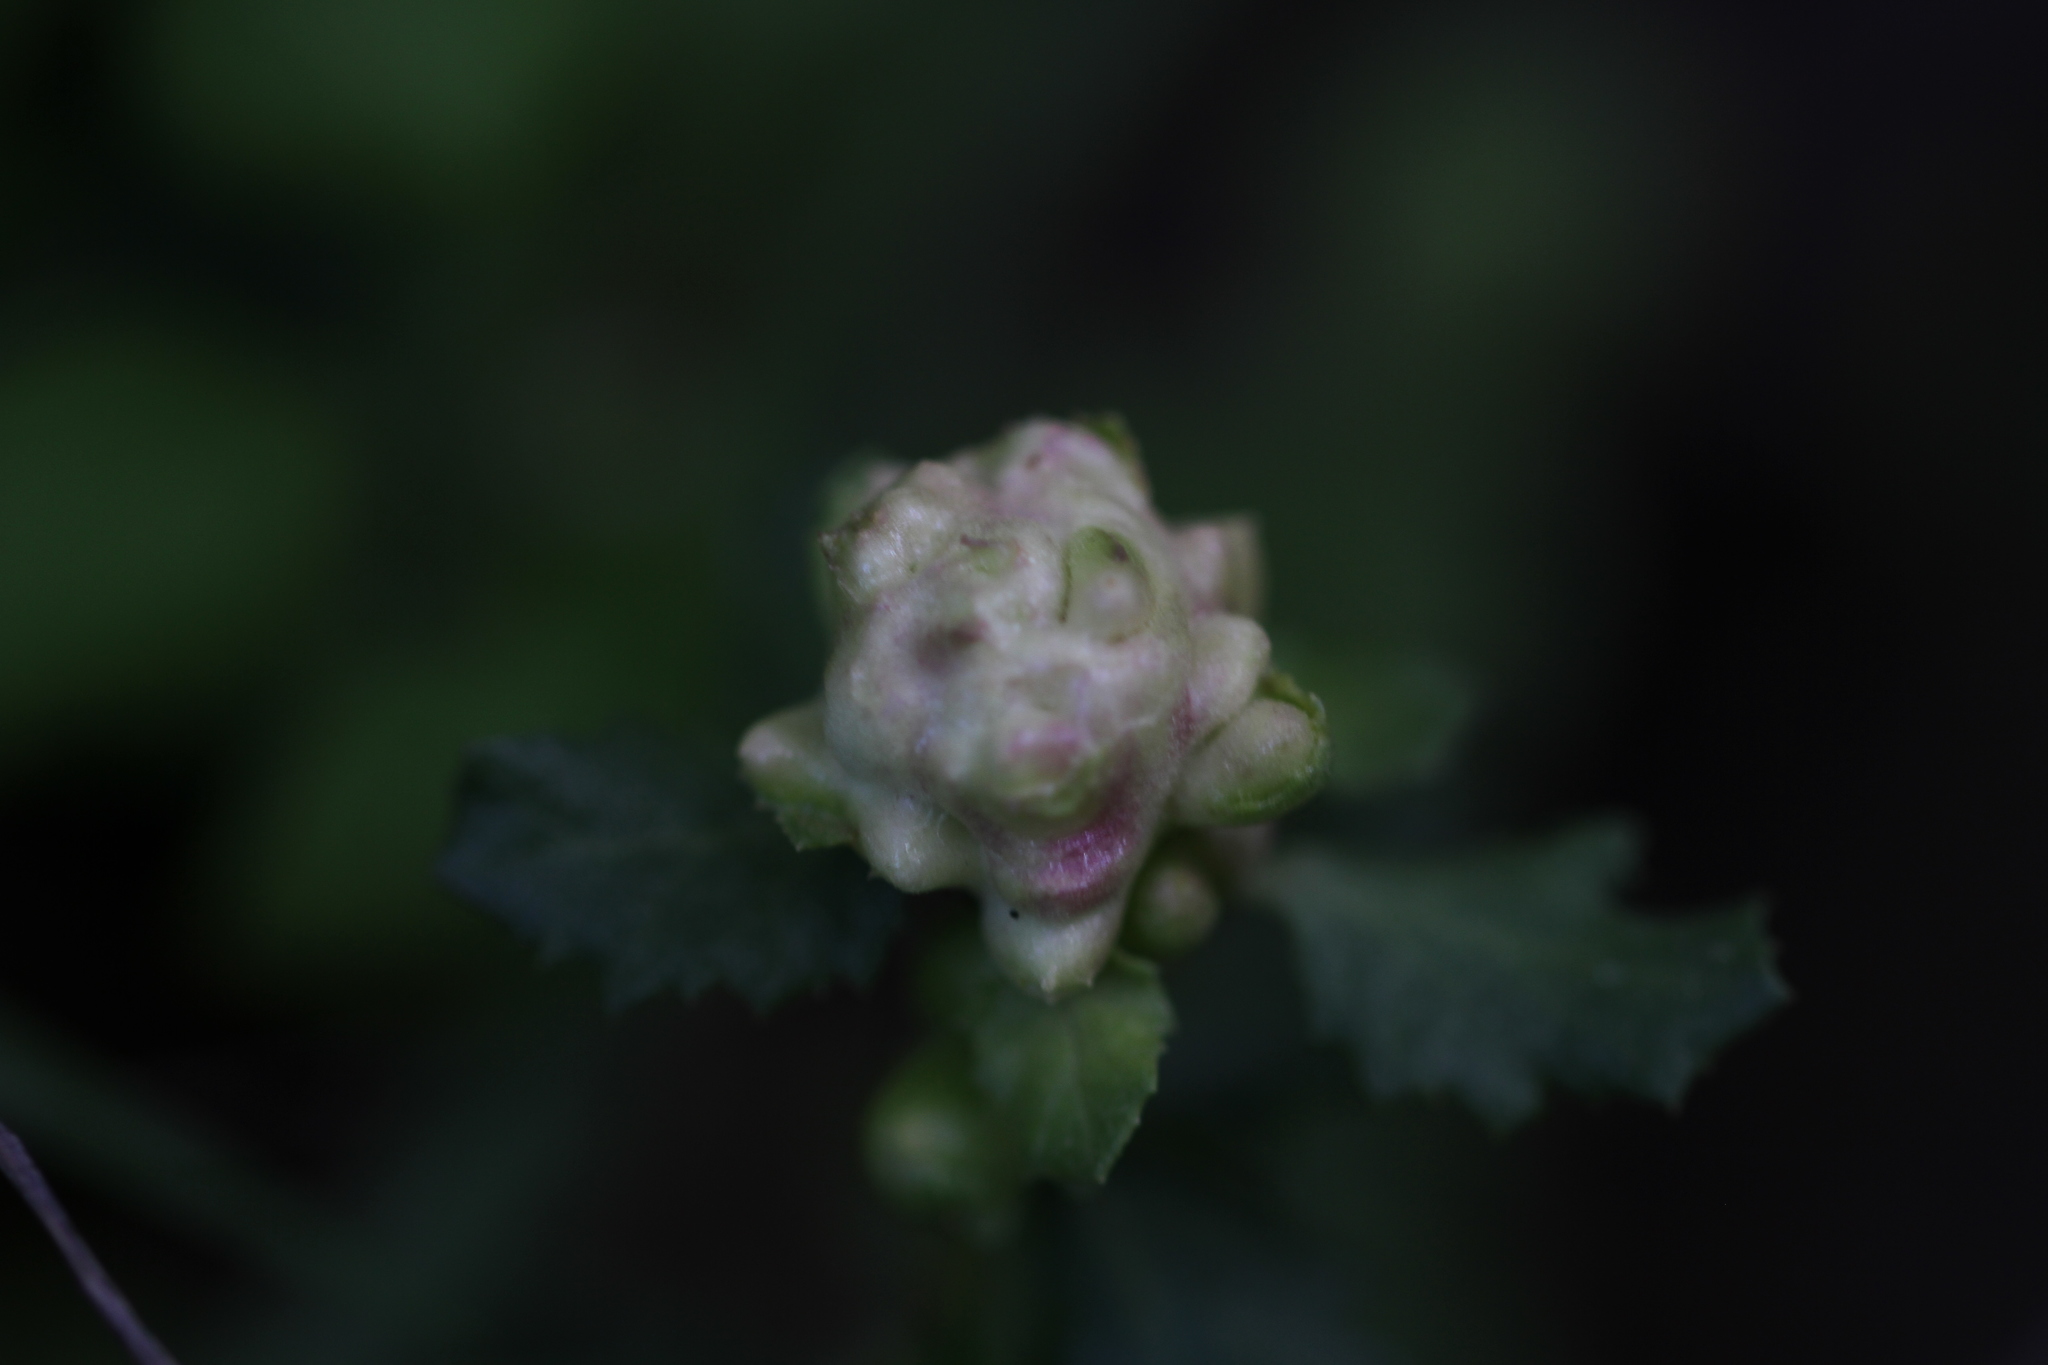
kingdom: Animalia
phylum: Arthropoda
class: Insecta
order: Diptera
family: Cecidomyiidae
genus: Rhopalomyia
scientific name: Rhopalomyia californica
